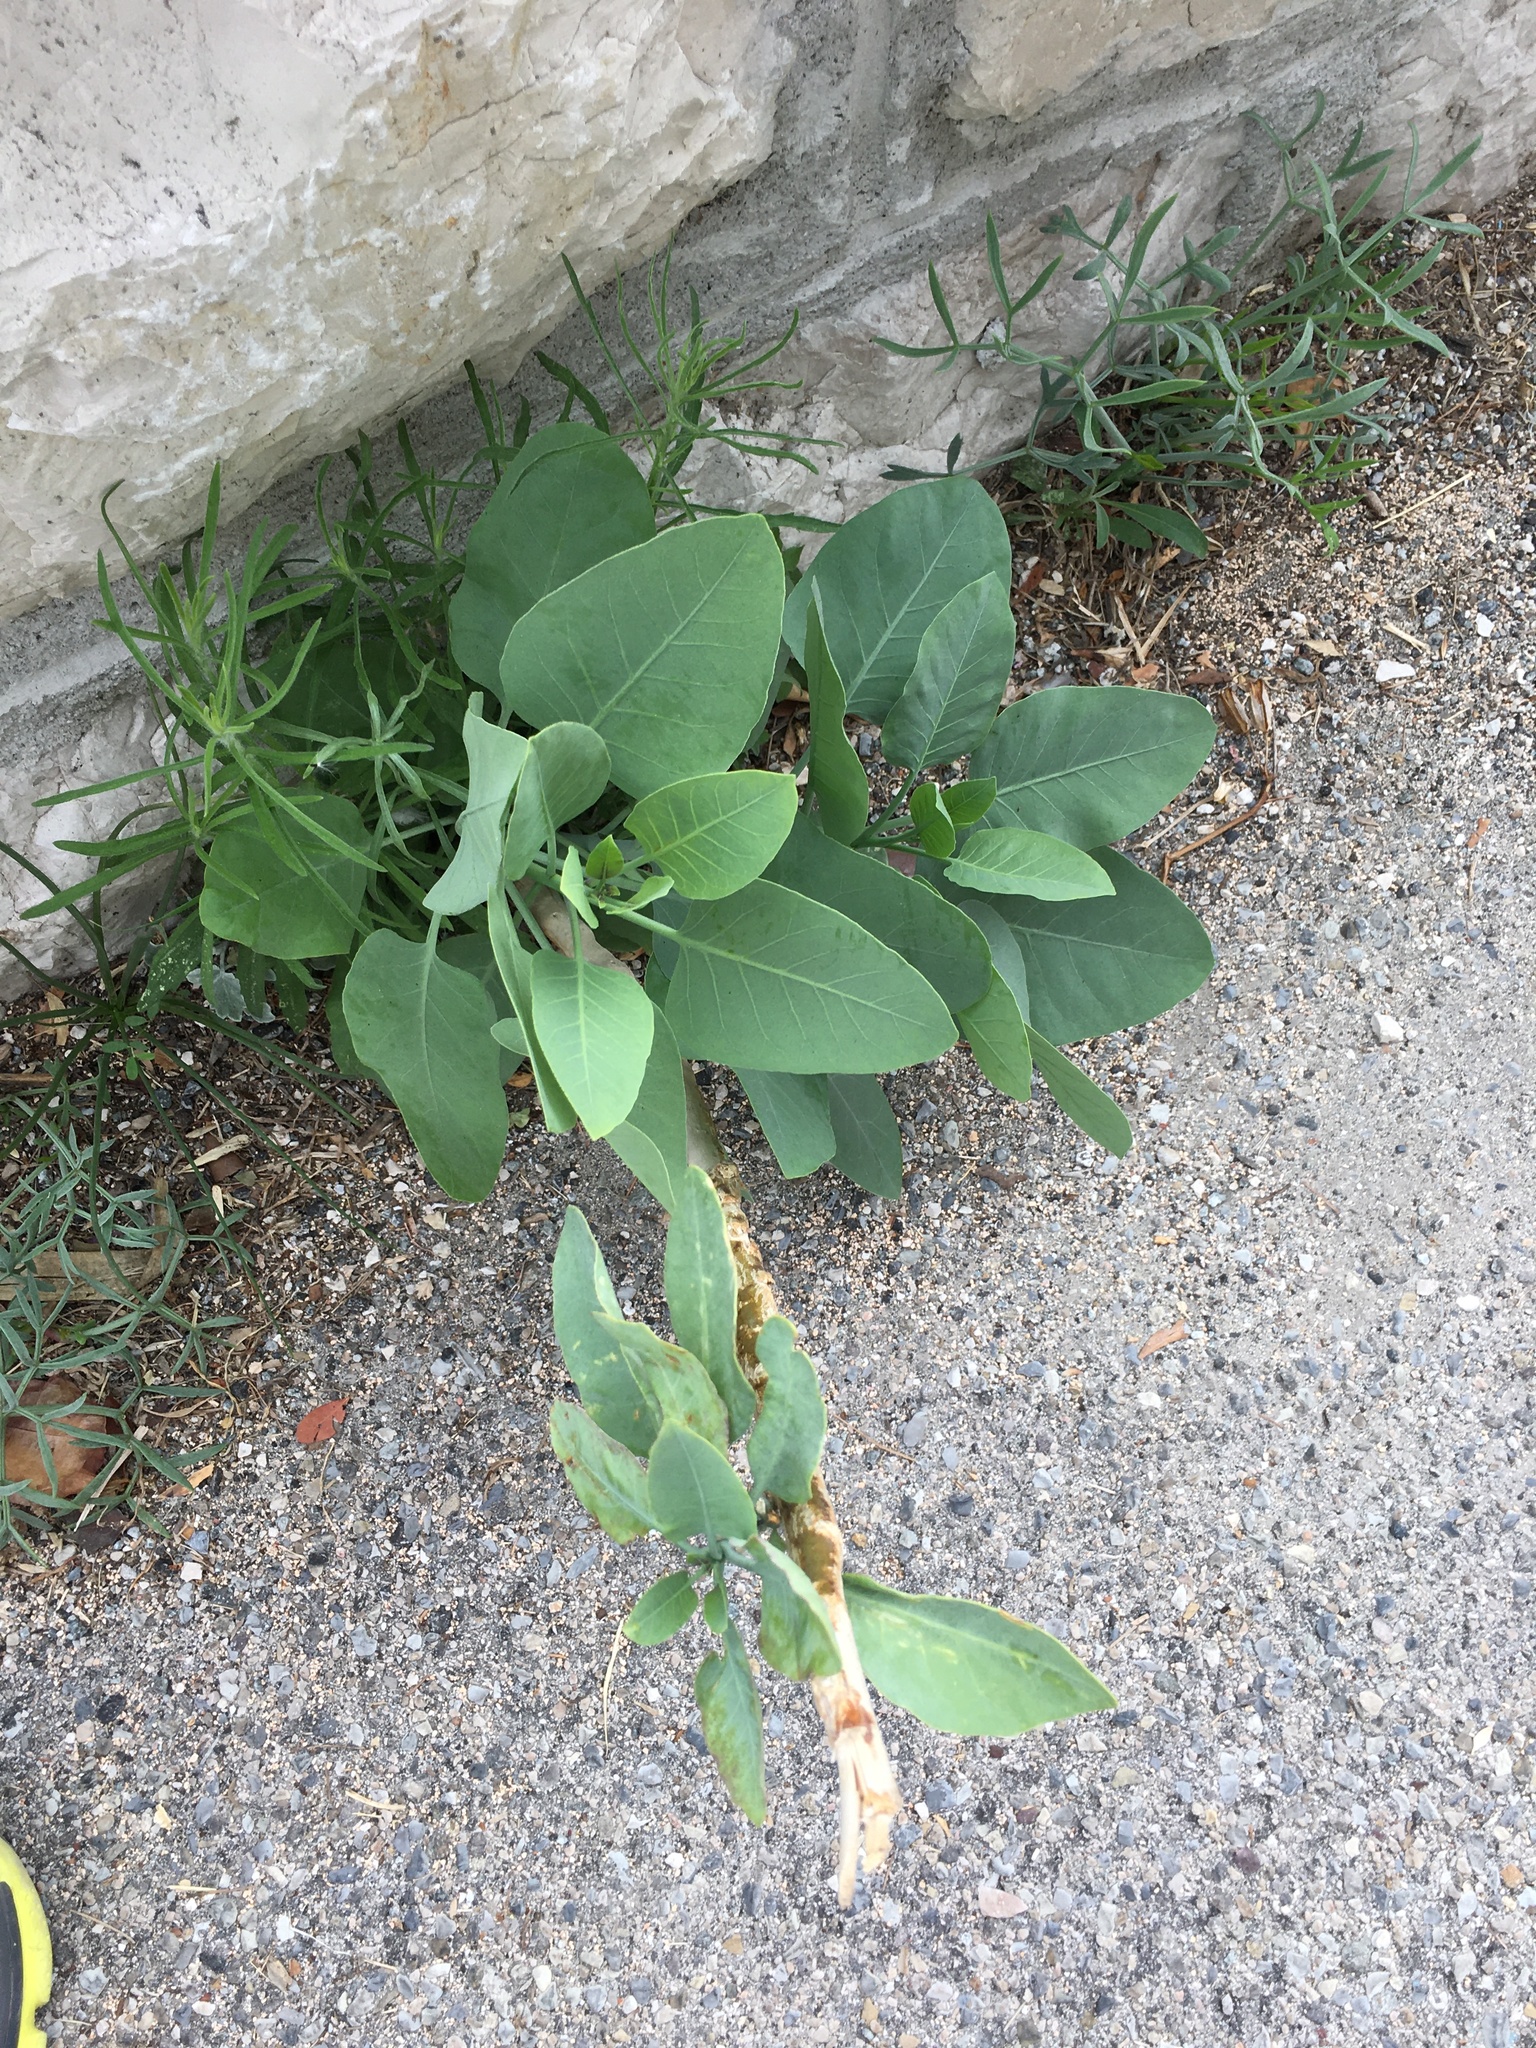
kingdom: Plantae
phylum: Tracheophyta
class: Magnoliopsida
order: Solanales
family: Solanaceae
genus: Nicotiana
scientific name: Nicotiana glauca
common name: Tree tobacco
